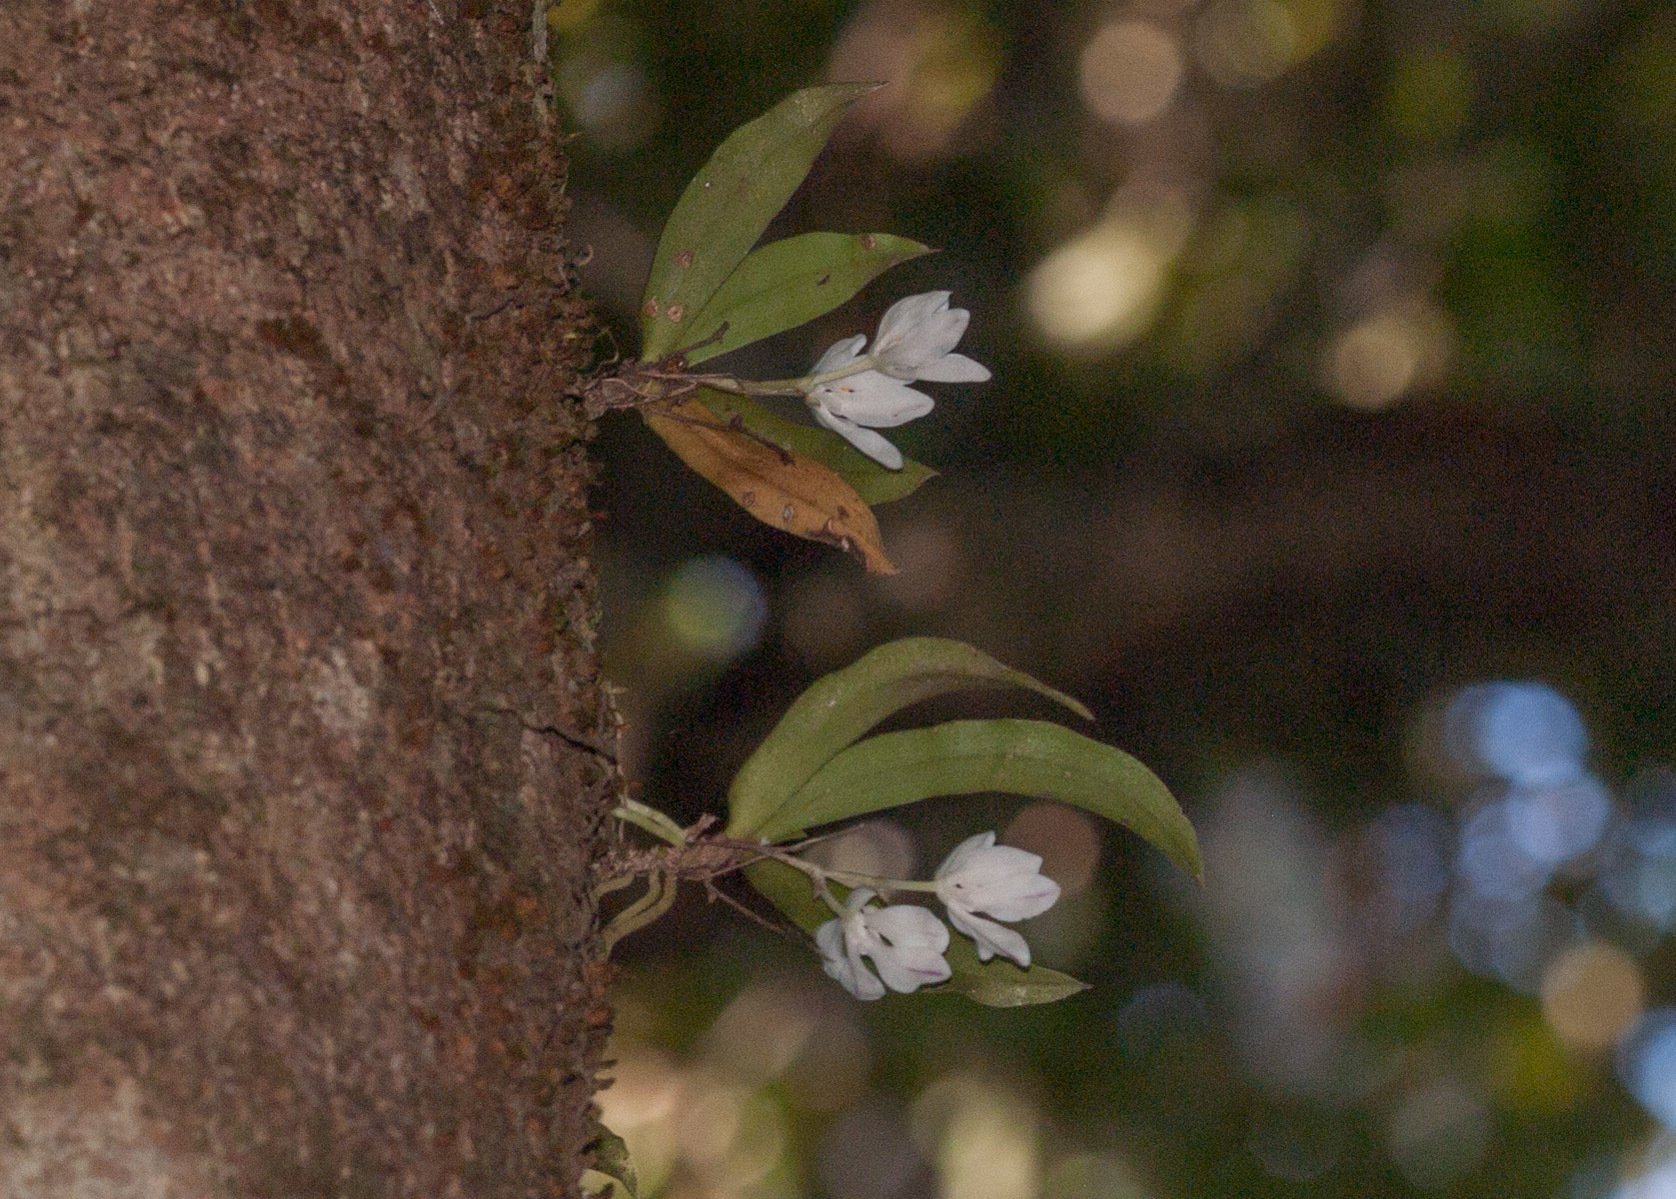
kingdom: Plantae
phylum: Tracheophyta
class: Liliopsida
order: Asparagales
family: Orchidaceae
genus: Sarcochilus
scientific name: Sarcochilus falcatus
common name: Orange blossom orchid
